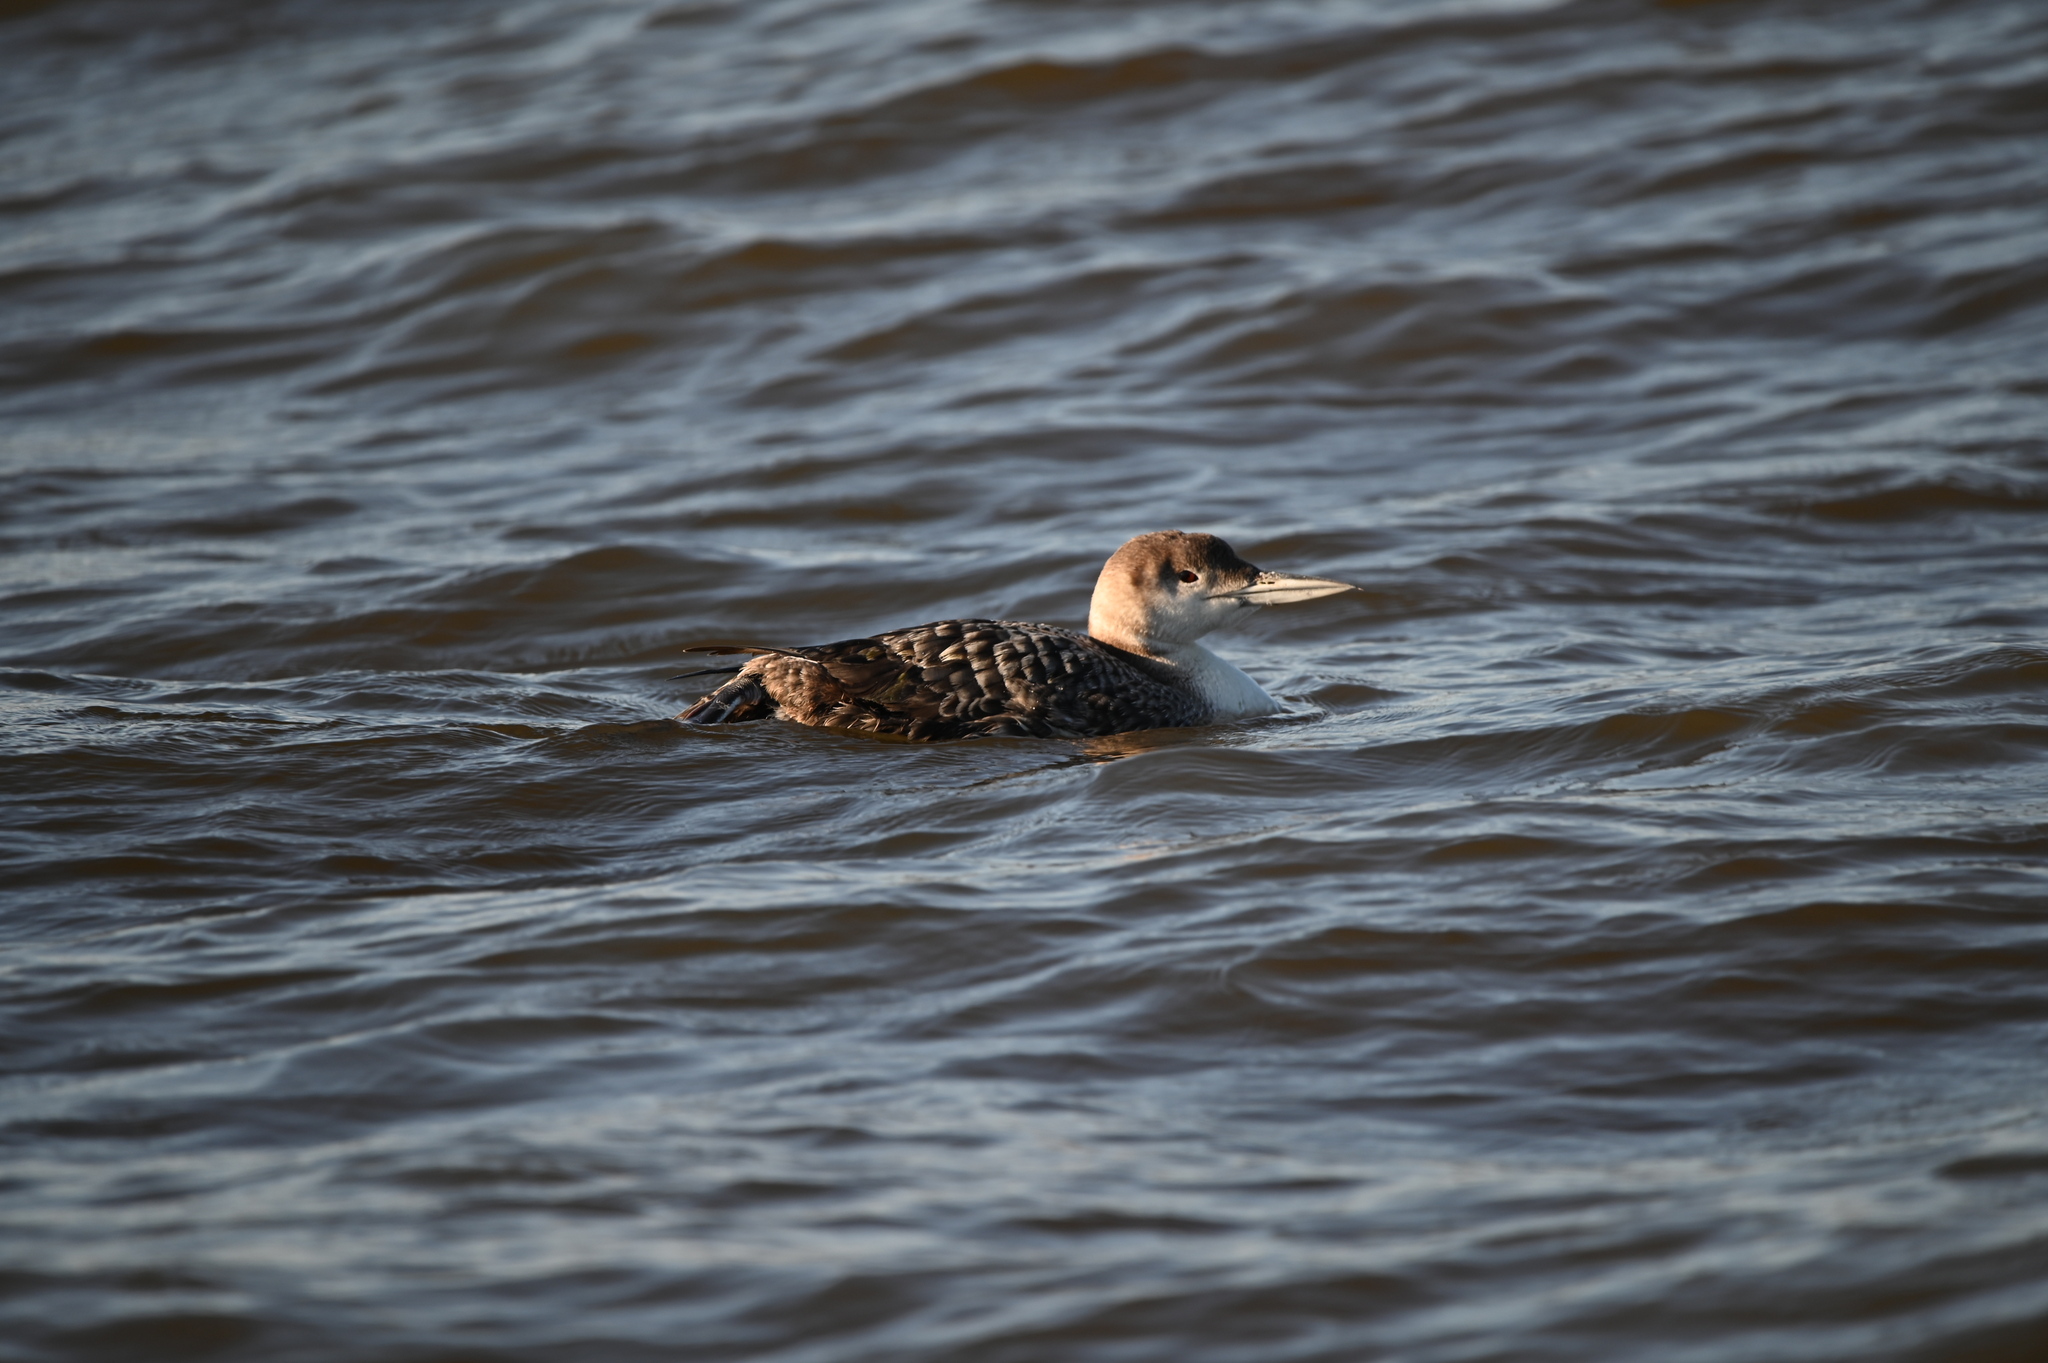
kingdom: Animalia
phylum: Chordata
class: Aves
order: Gaviiformes
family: Gaviidae
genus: Gavia
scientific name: Gavia immer
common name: Common loon
